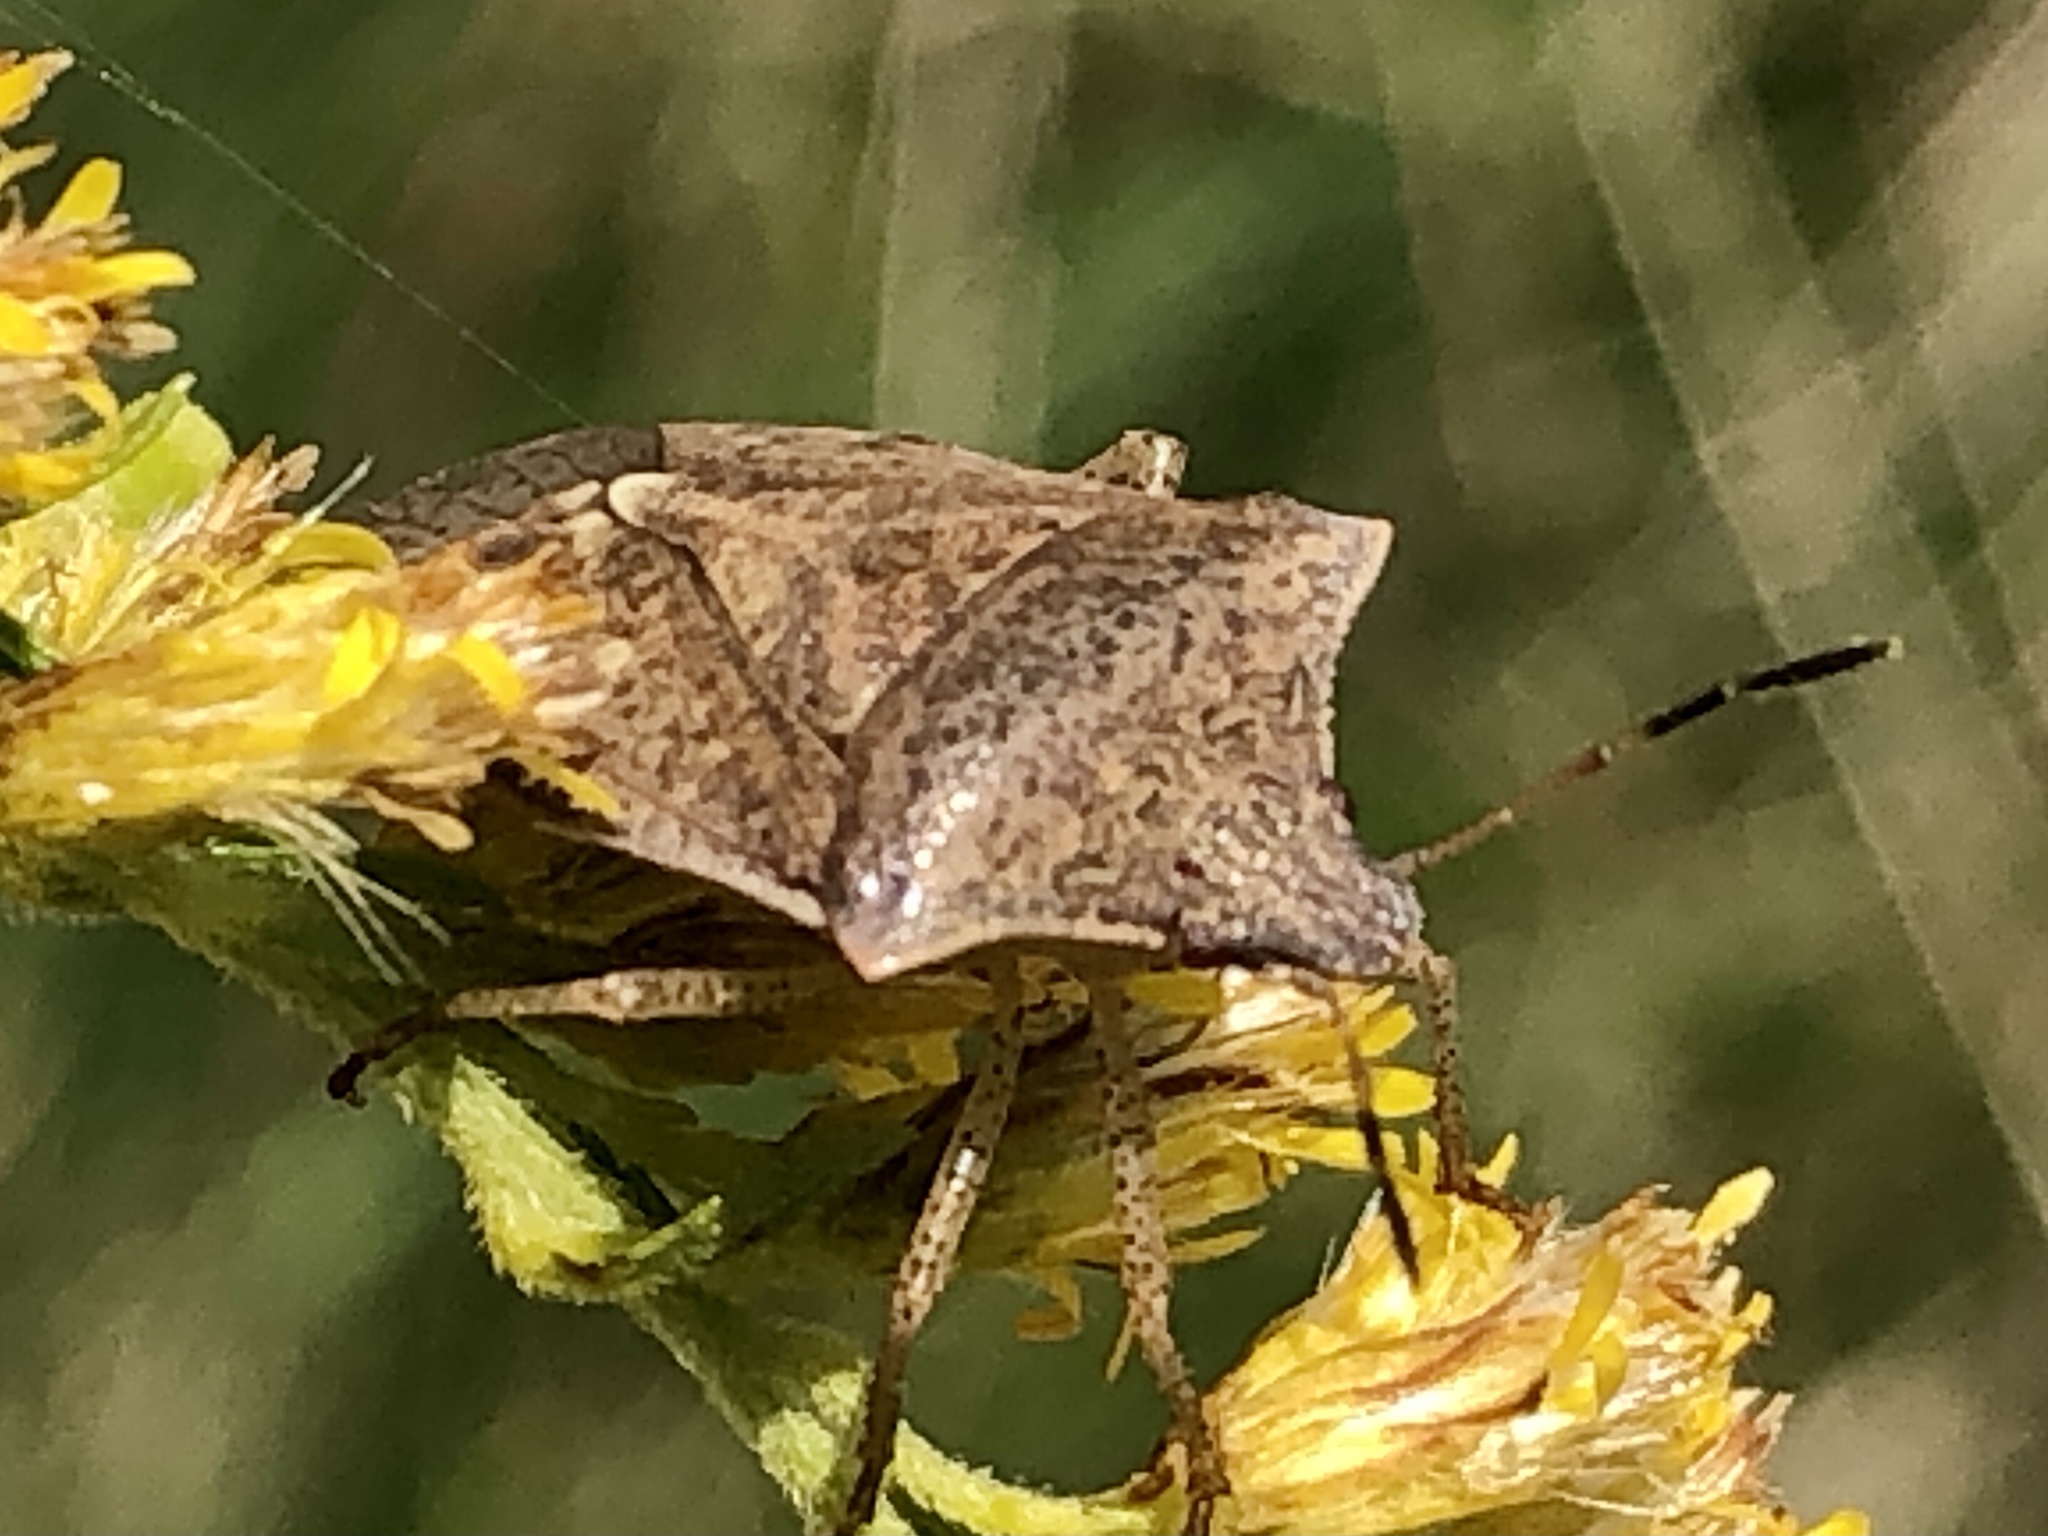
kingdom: Animalia
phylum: Arthropoda
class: Insecta
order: Hemiptera
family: Pentatomidae
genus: Euschistus
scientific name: Euschistus servus
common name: Brown stink bug
